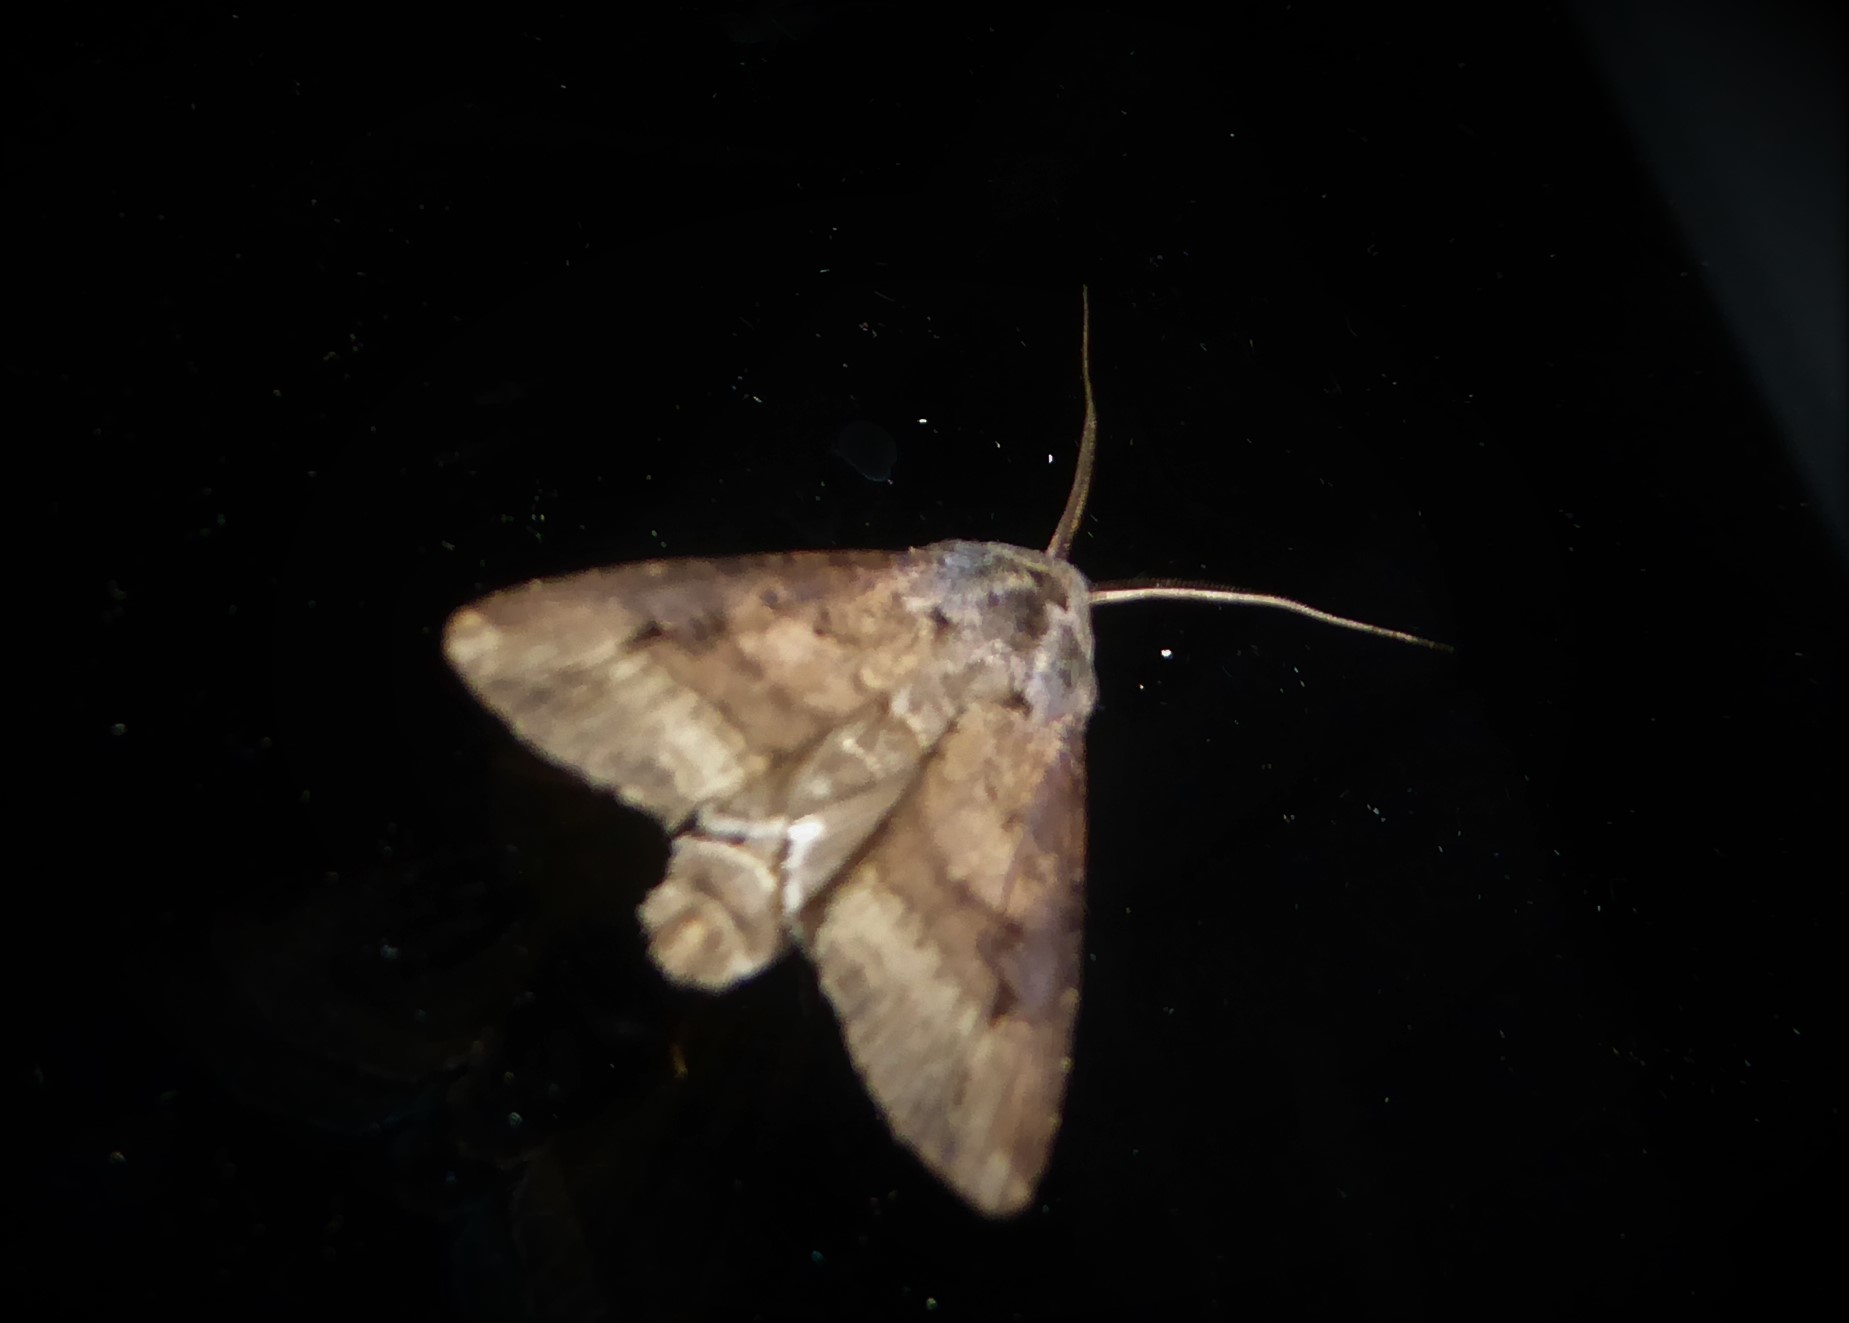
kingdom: Animalia
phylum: Arthropoda
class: Insecta
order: Lepidoptera
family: Noctuidae
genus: Agrotis
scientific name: Agrotis ipsilon
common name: Dark sword-grass
